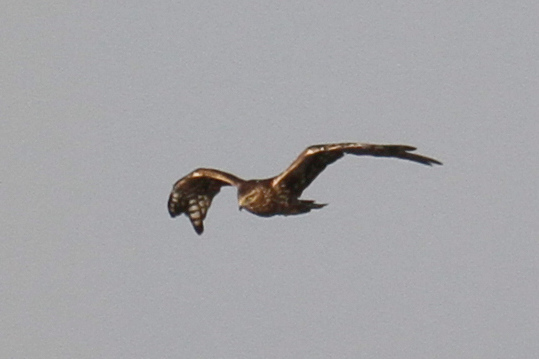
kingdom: Animalia
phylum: Chordata
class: Aves
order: Accipitriformes
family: Accipitridae
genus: Circus
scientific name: Circus cyaneus
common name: Hen harrier
